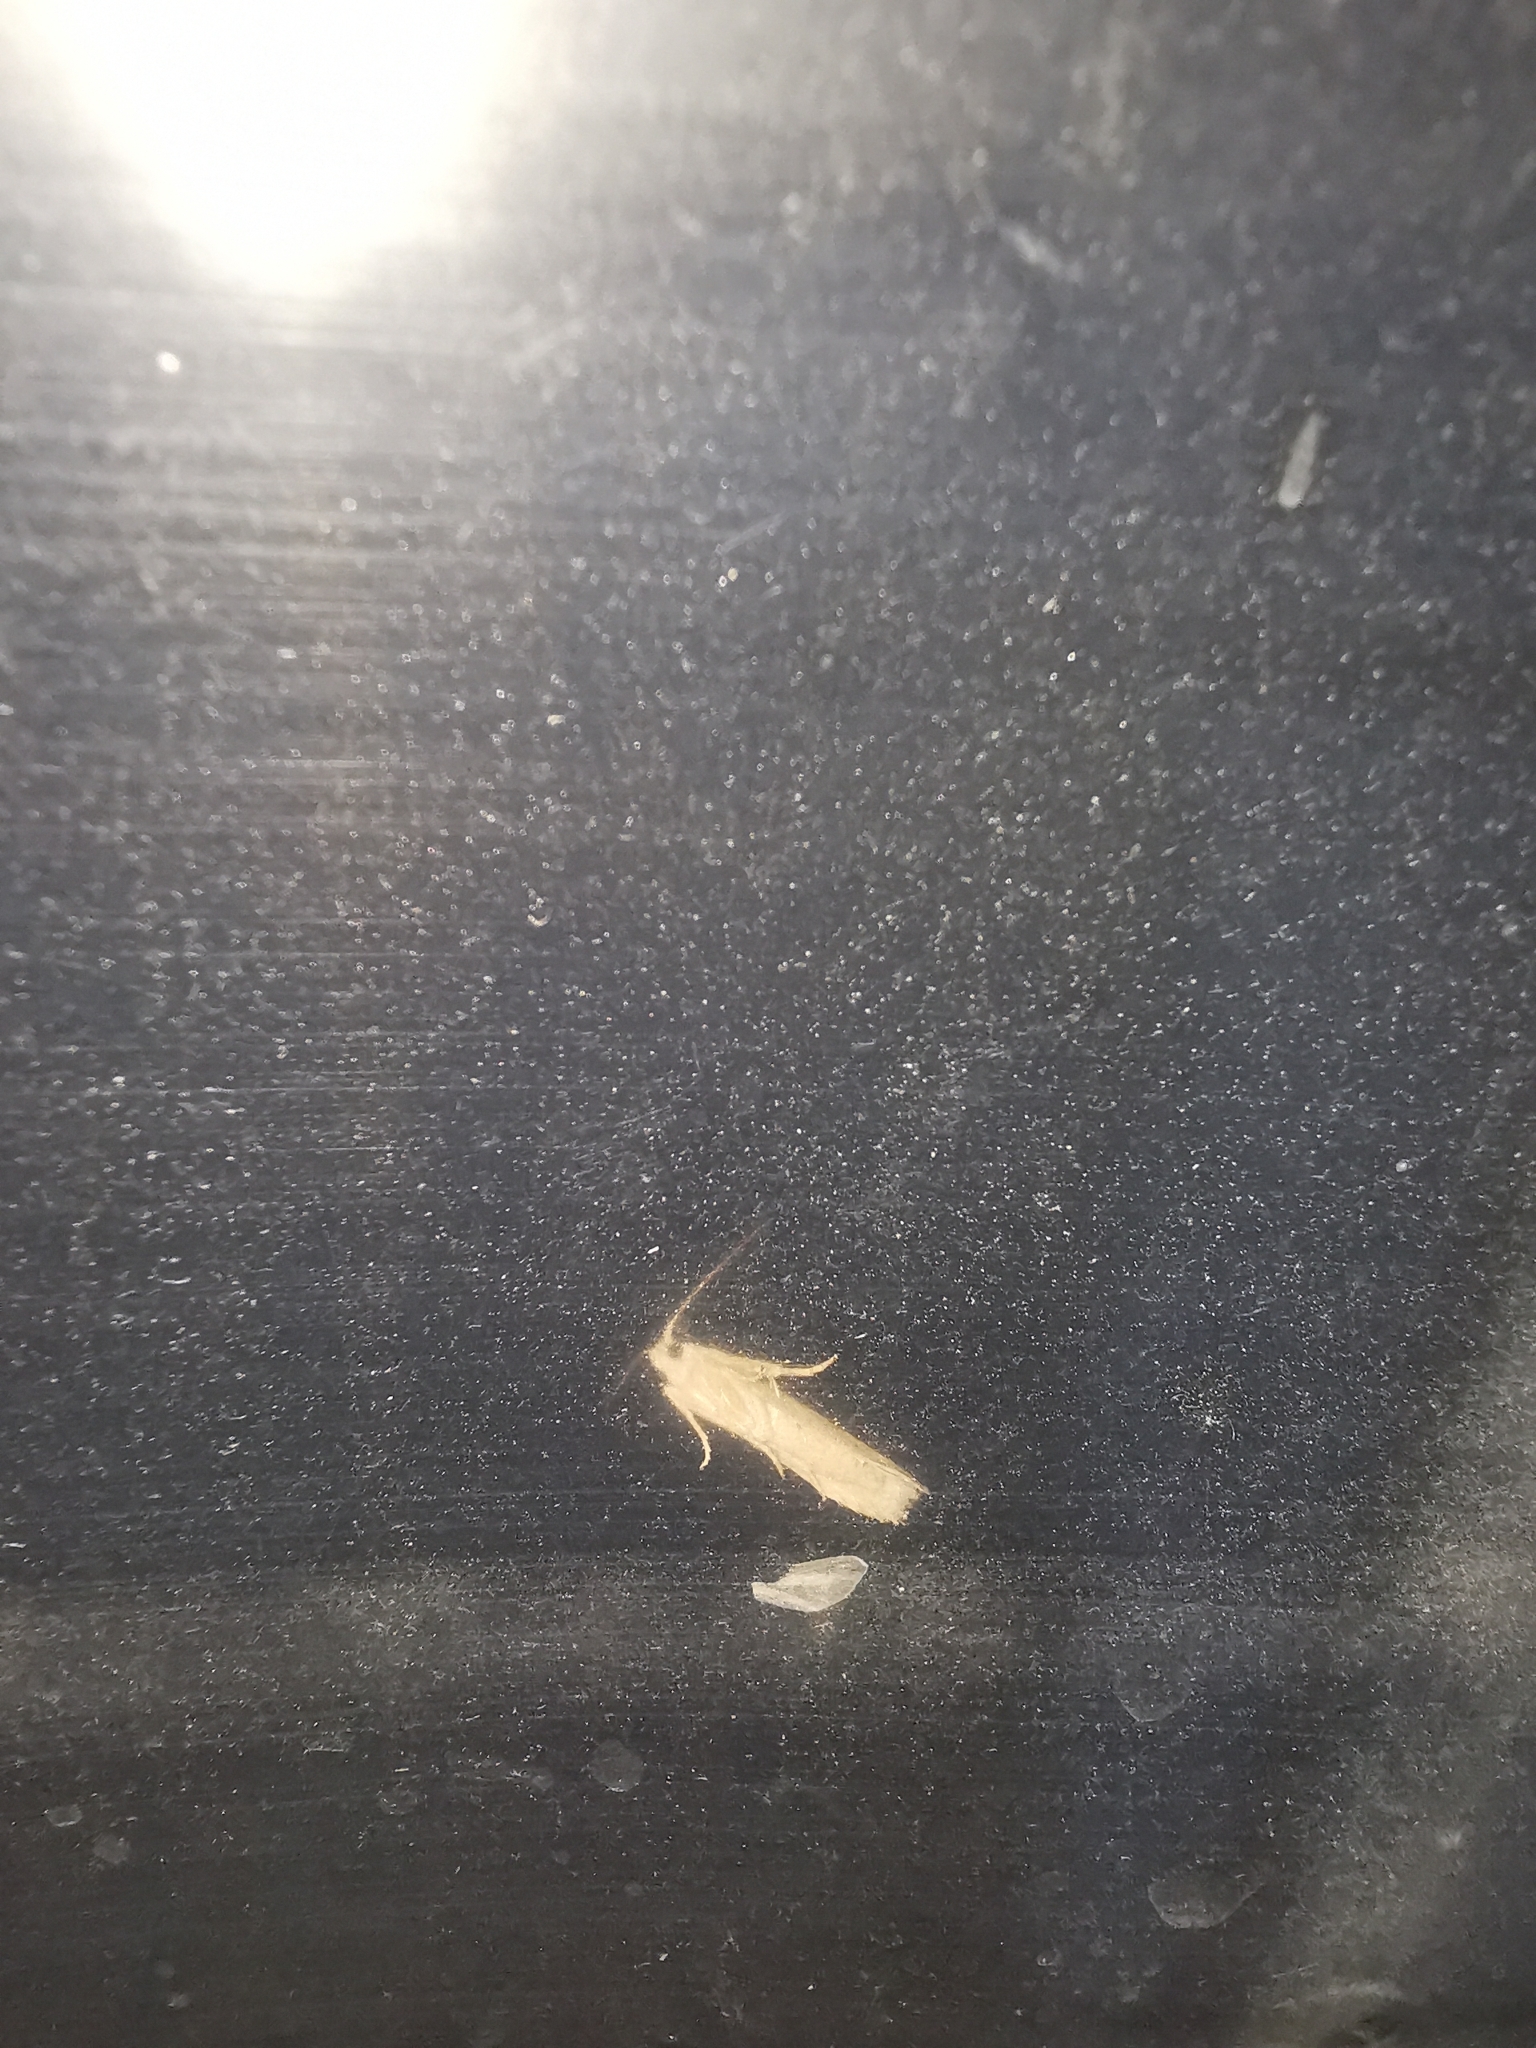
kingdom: Animalia
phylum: Arthropoda
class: Insecta
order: Lepidoptera
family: Cosmopterigidae
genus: Limnaecia
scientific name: Limnaecia phragmitella
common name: Bulrush cosmet
